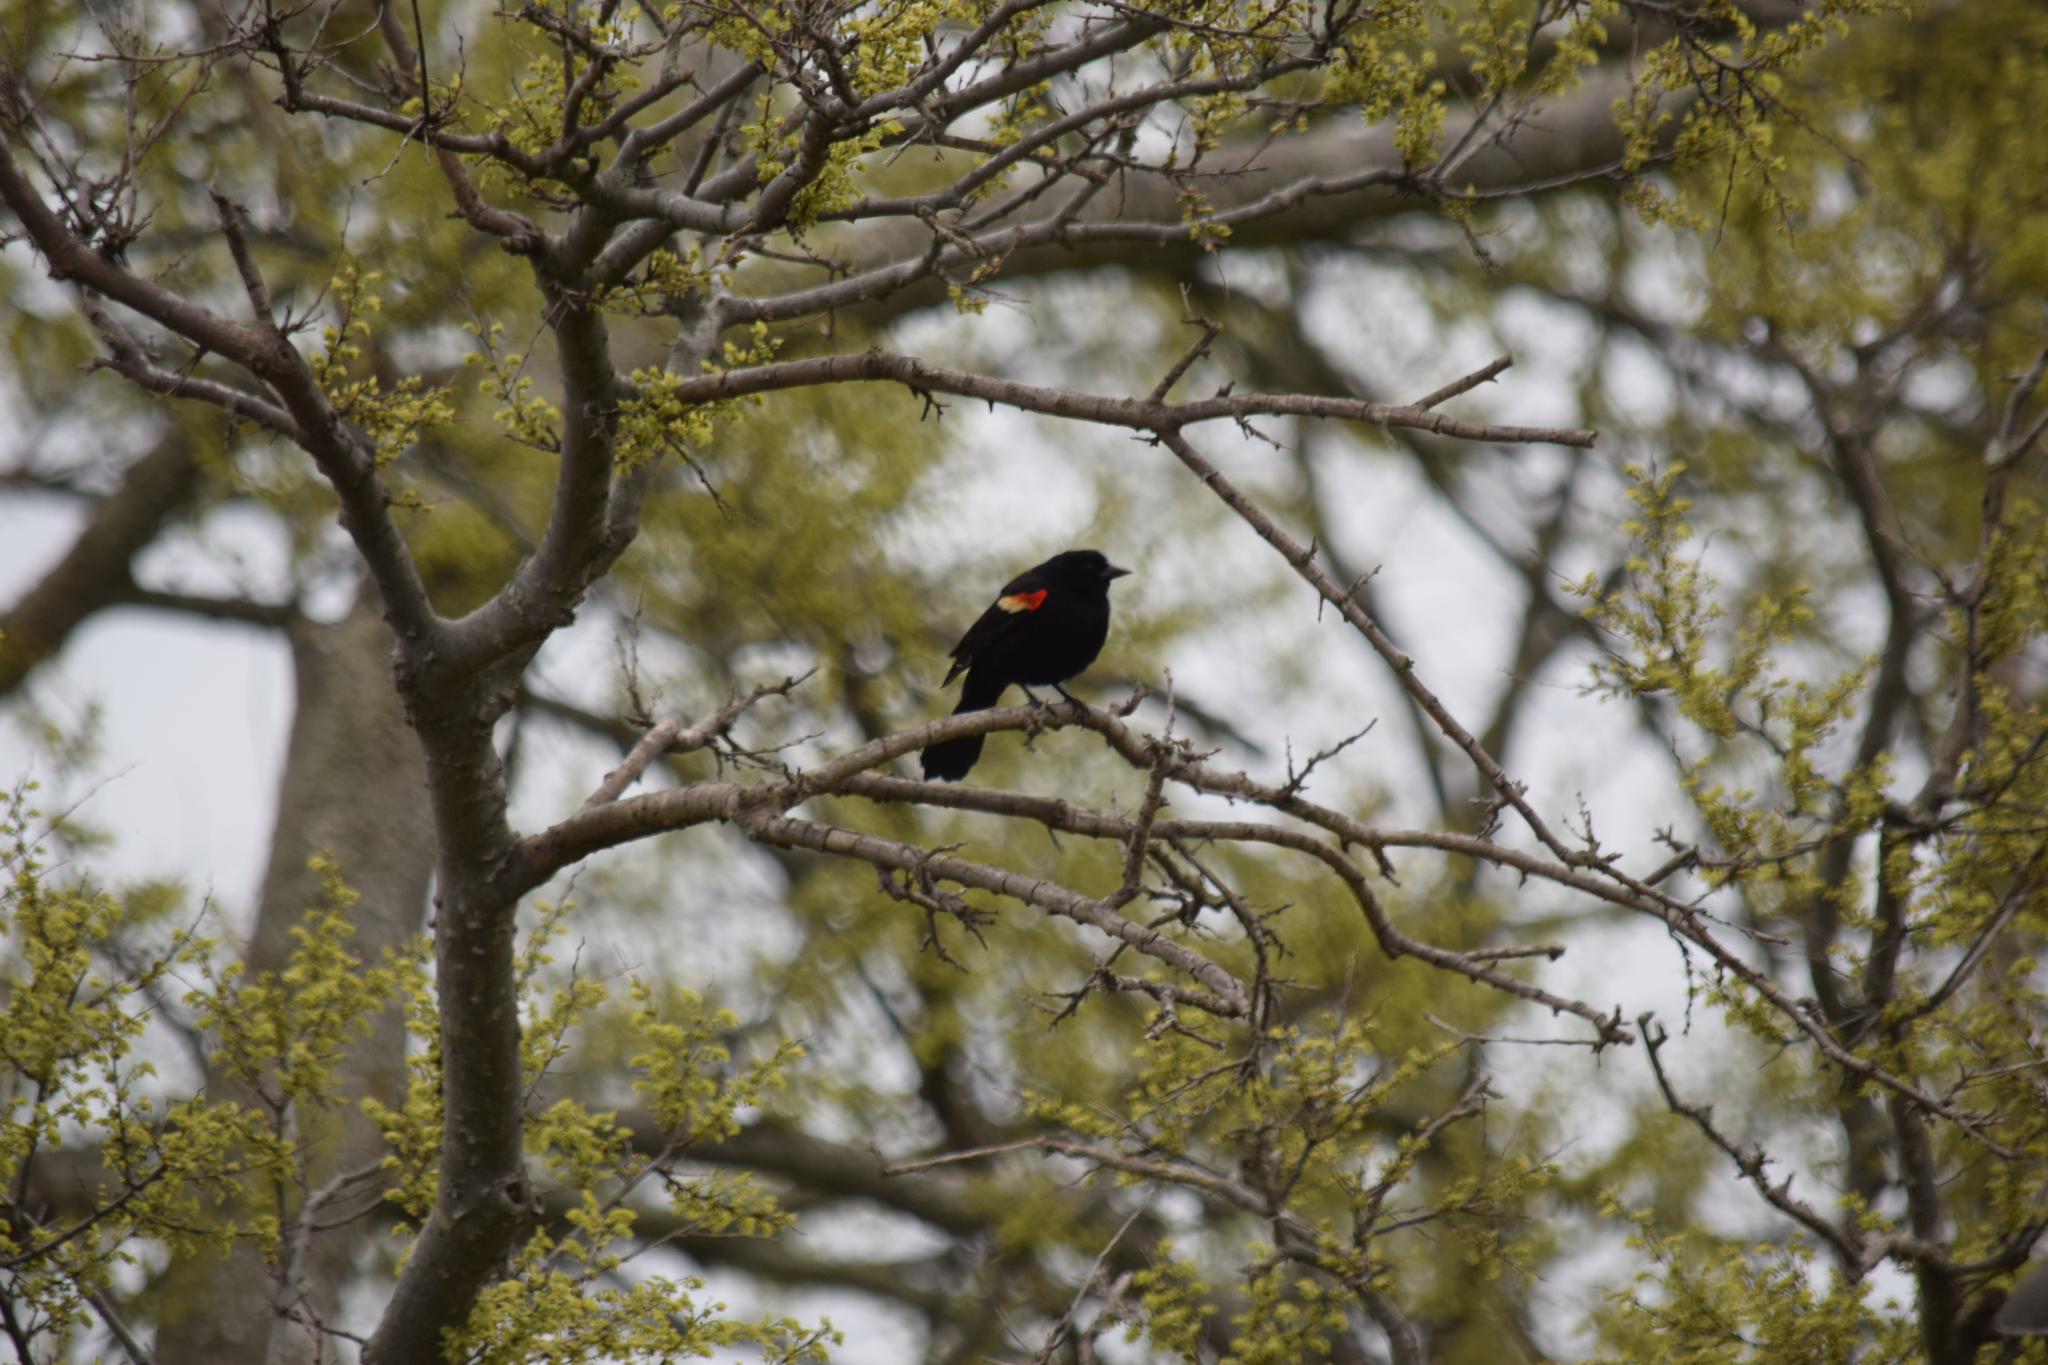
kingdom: Animalia
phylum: Chordata
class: Aves
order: Passeriformes
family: Icteridae
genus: Agelaius
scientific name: Agelaius phoeniceus
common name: Red-winged blackbird
